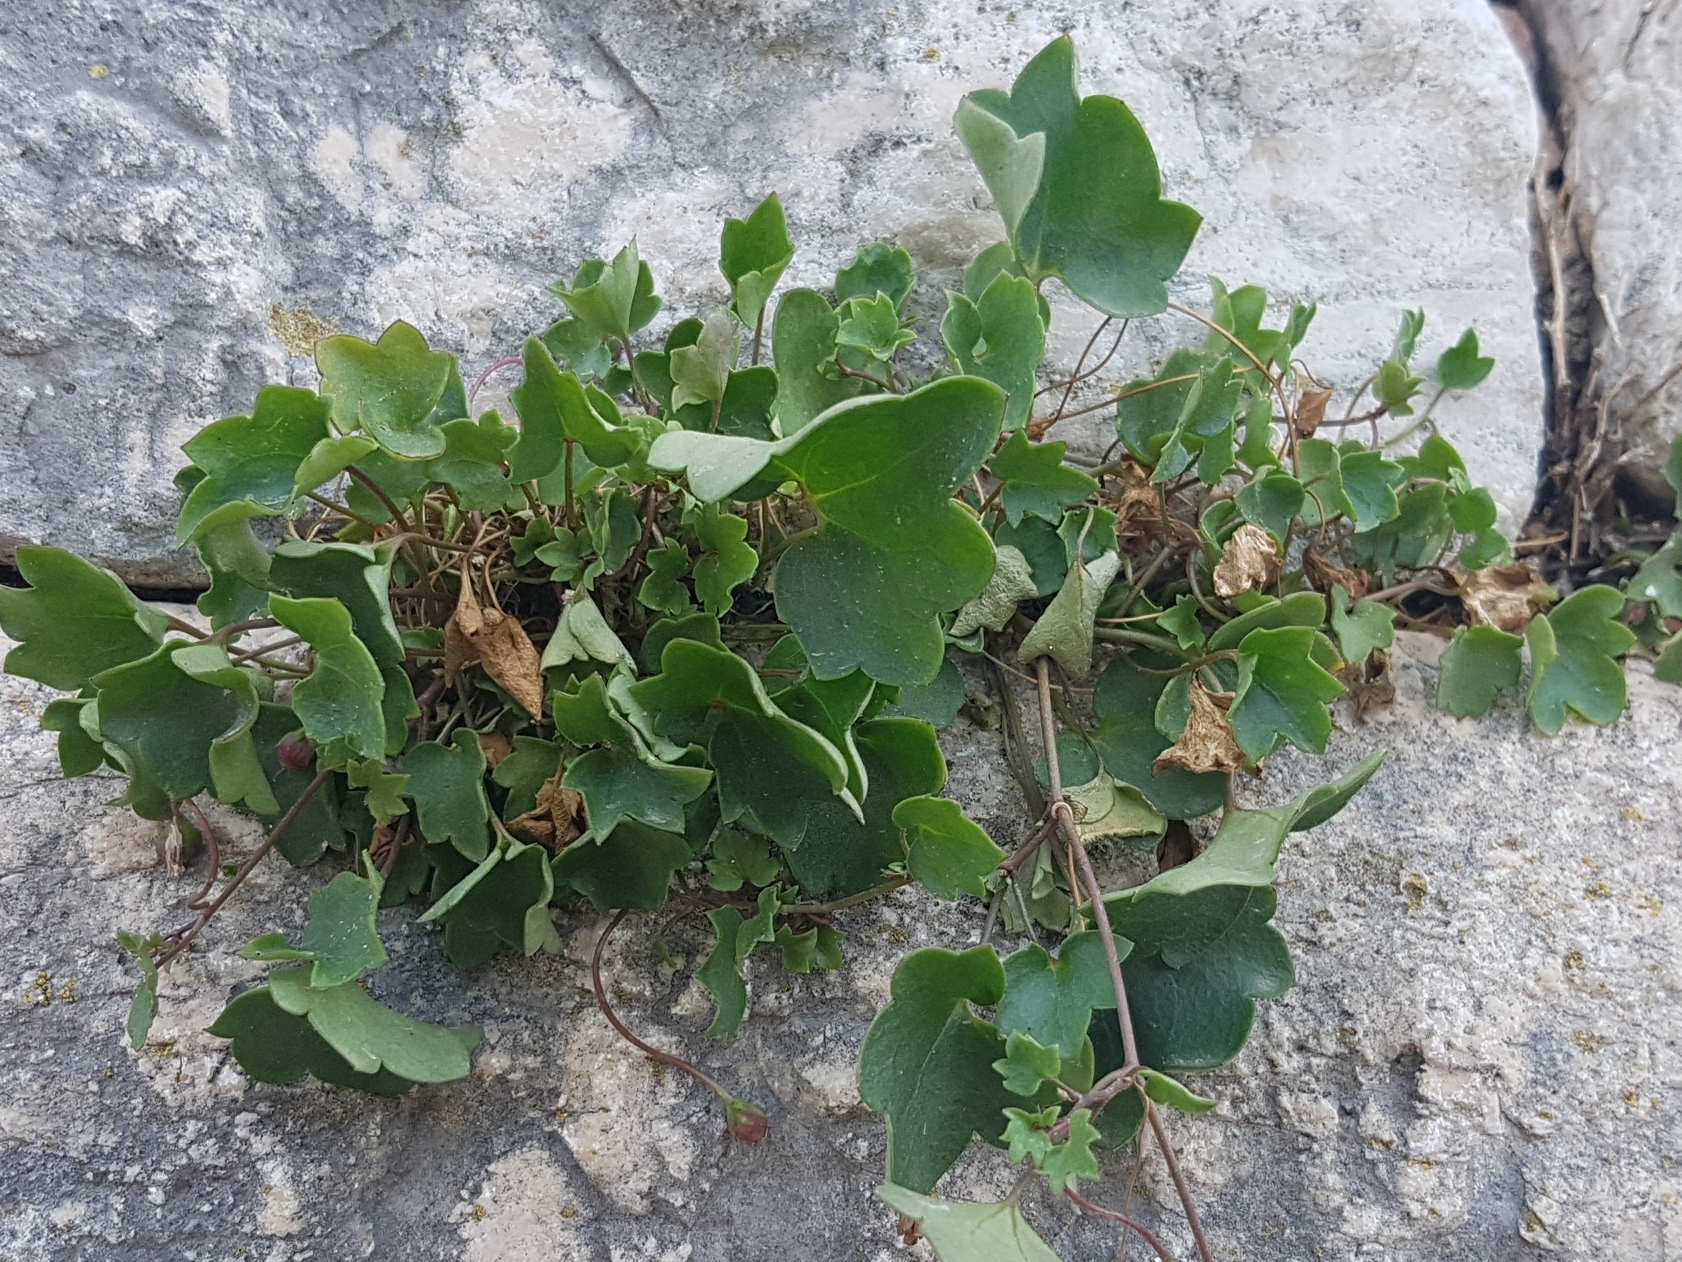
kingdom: Plantae
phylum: Tracheophyta
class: Magnoliopsida
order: Lamiales
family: Plantaginaceae
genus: Cymbalaria
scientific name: Cymbalaria muralis
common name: Ivy-leaved toadflax
